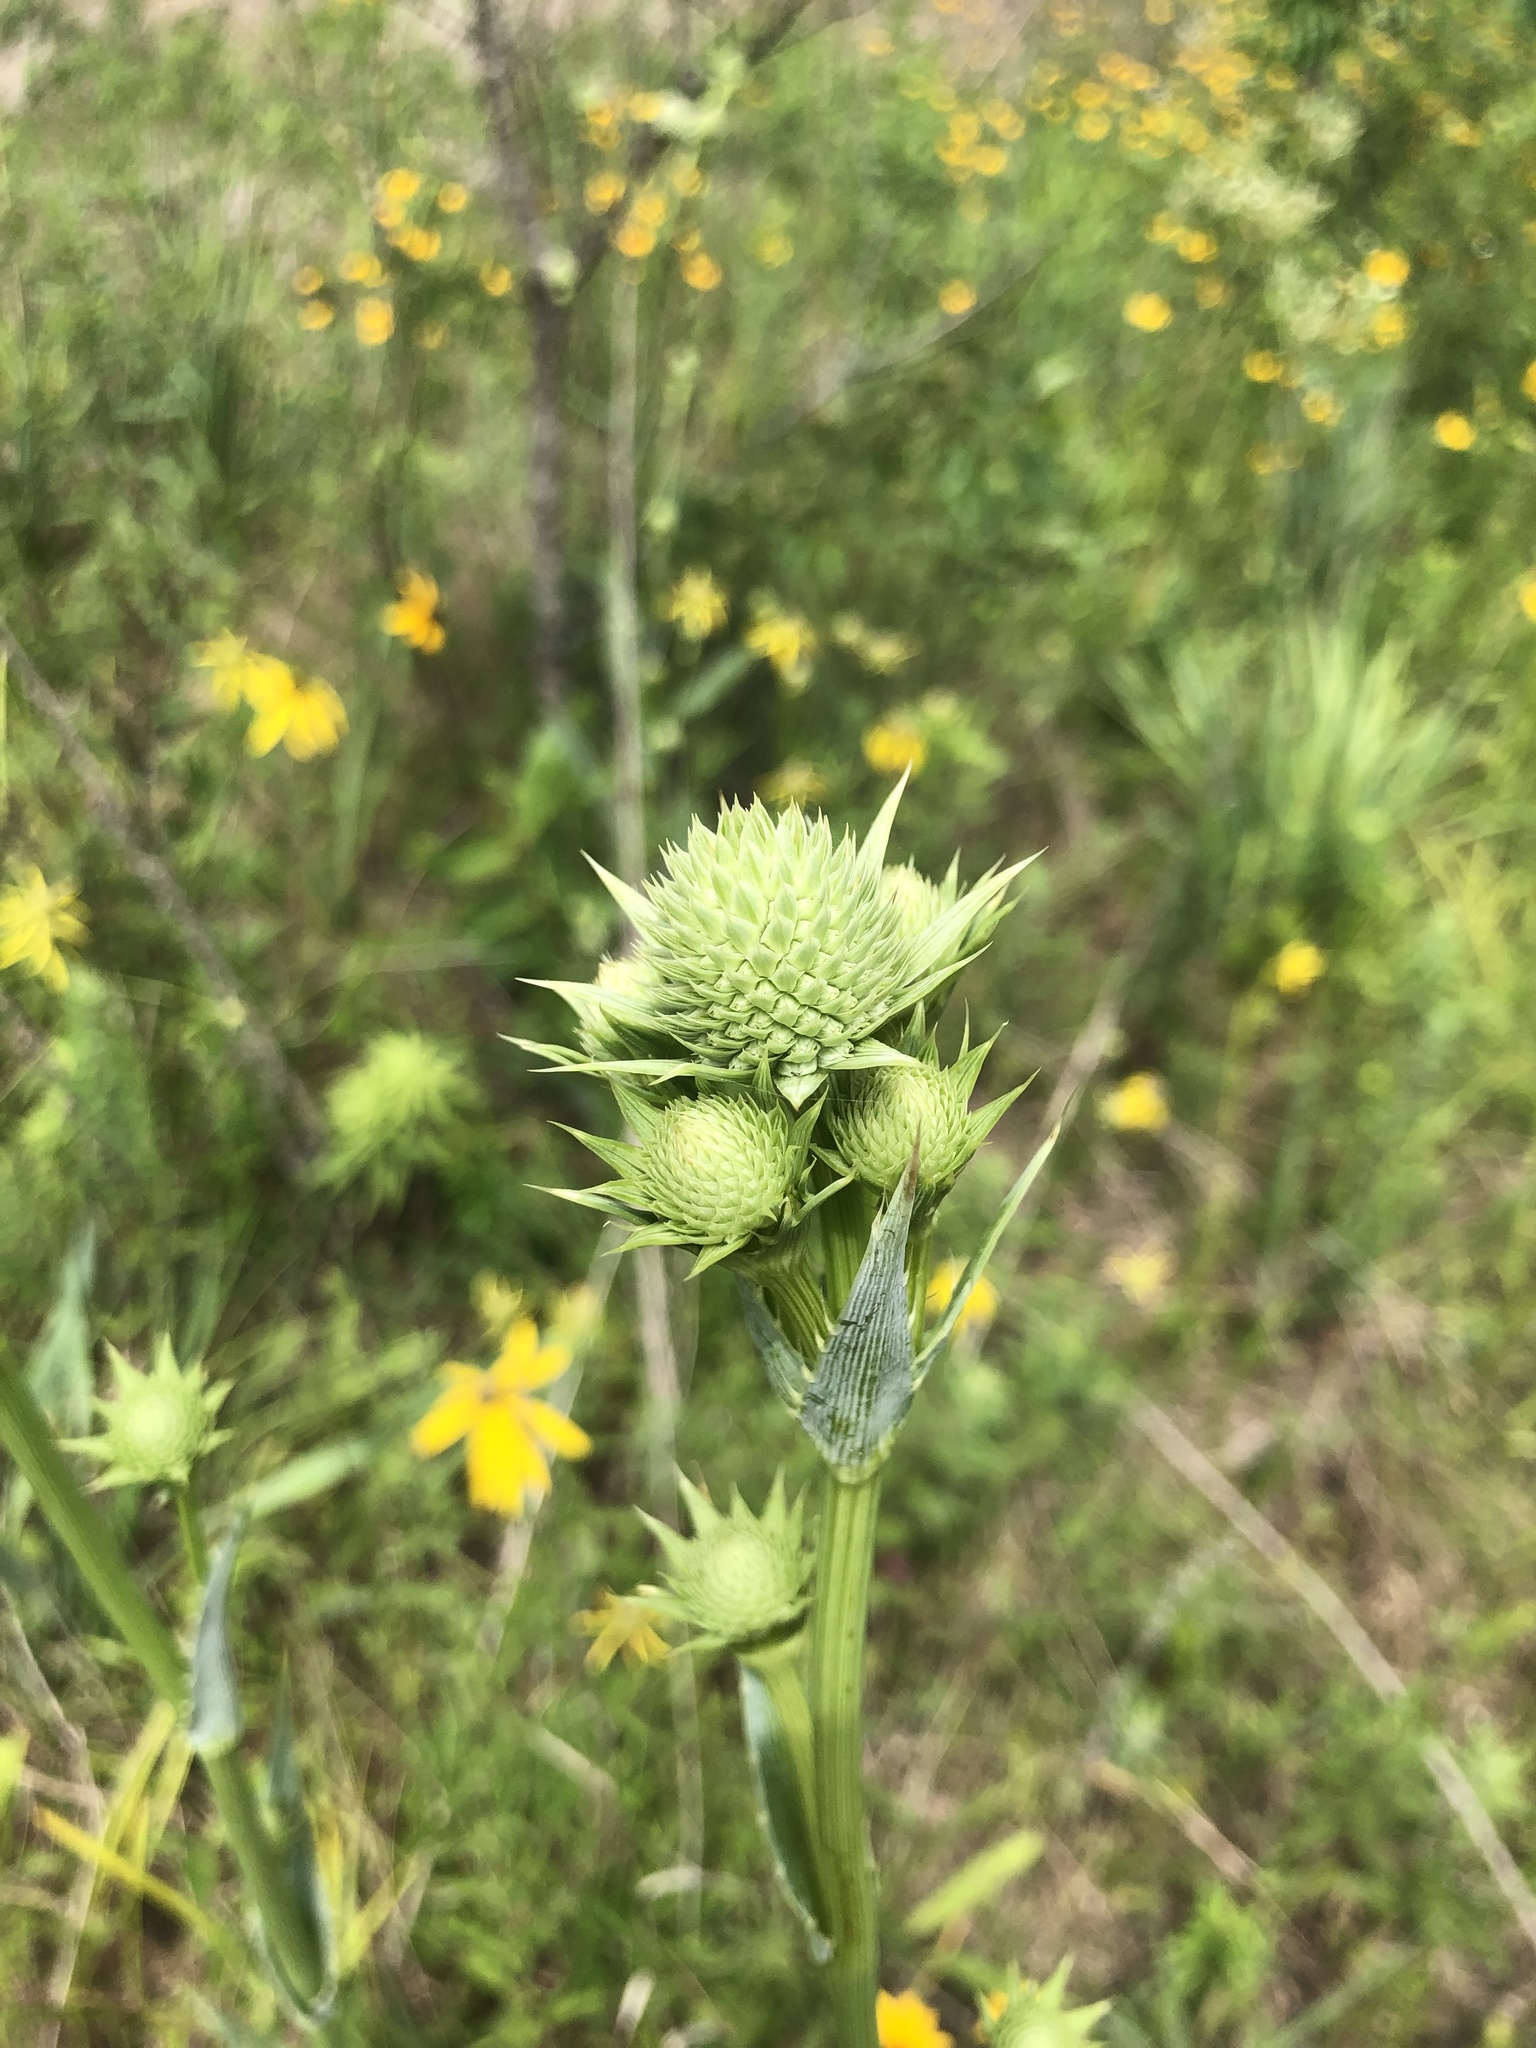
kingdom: Plantae
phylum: Tracheophyta
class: Magnoliopsida
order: Apiales
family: Apiaceae
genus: Eryngium
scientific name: Eryngium yuccifolium
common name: Button eryngo
